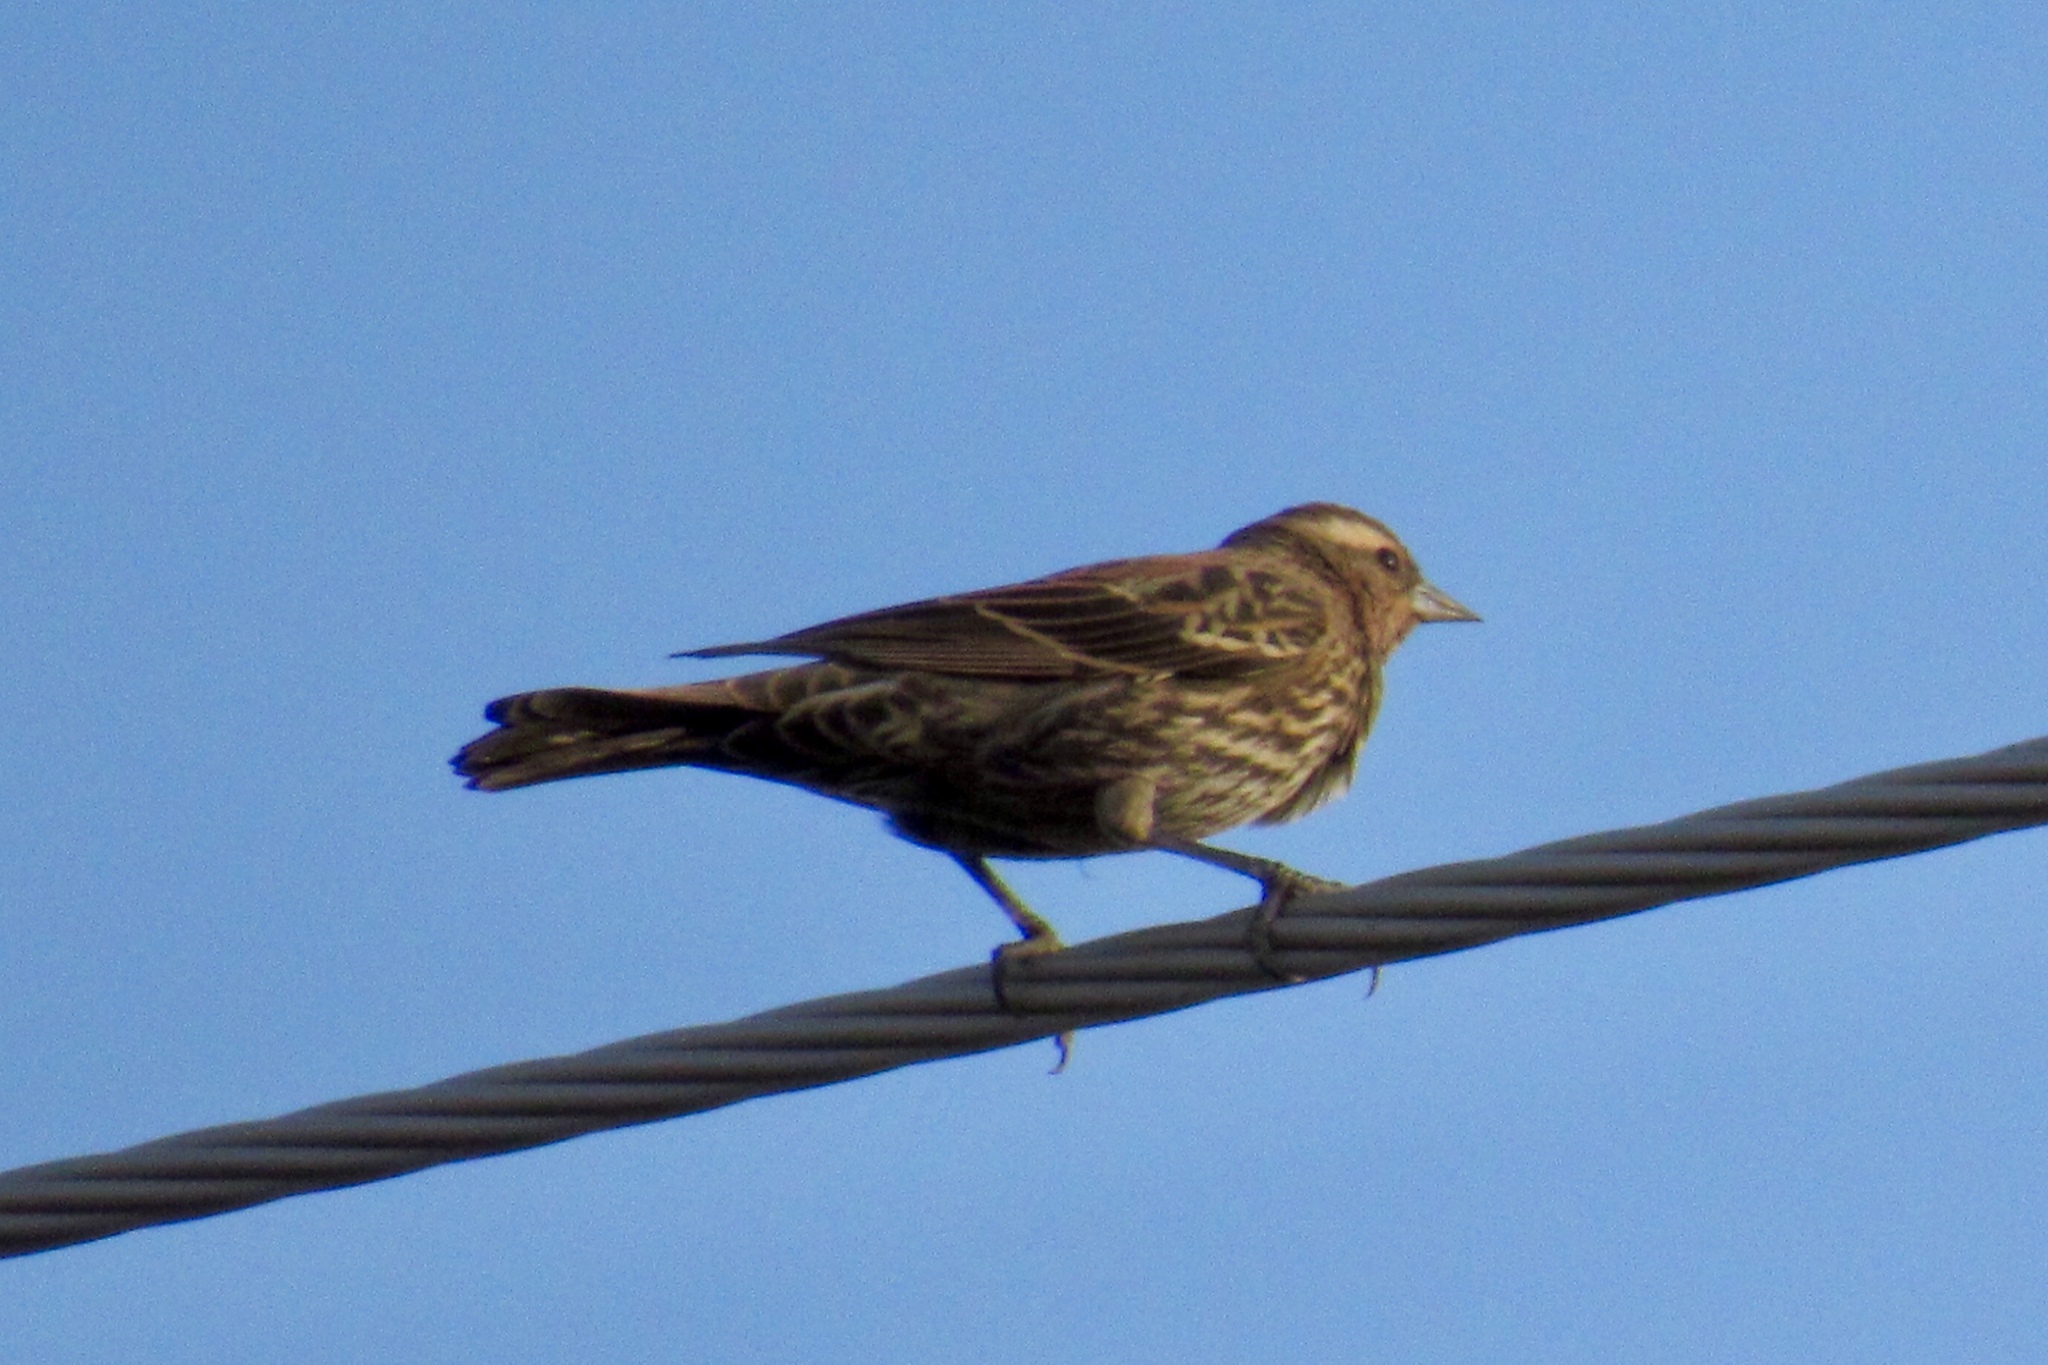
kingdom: Animalia
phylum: Chordata
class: Aves
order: Passeriformes
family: Icteridae
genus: Agelaius
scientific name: Agelaius phoeniceus
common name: Red-winged blackbird
